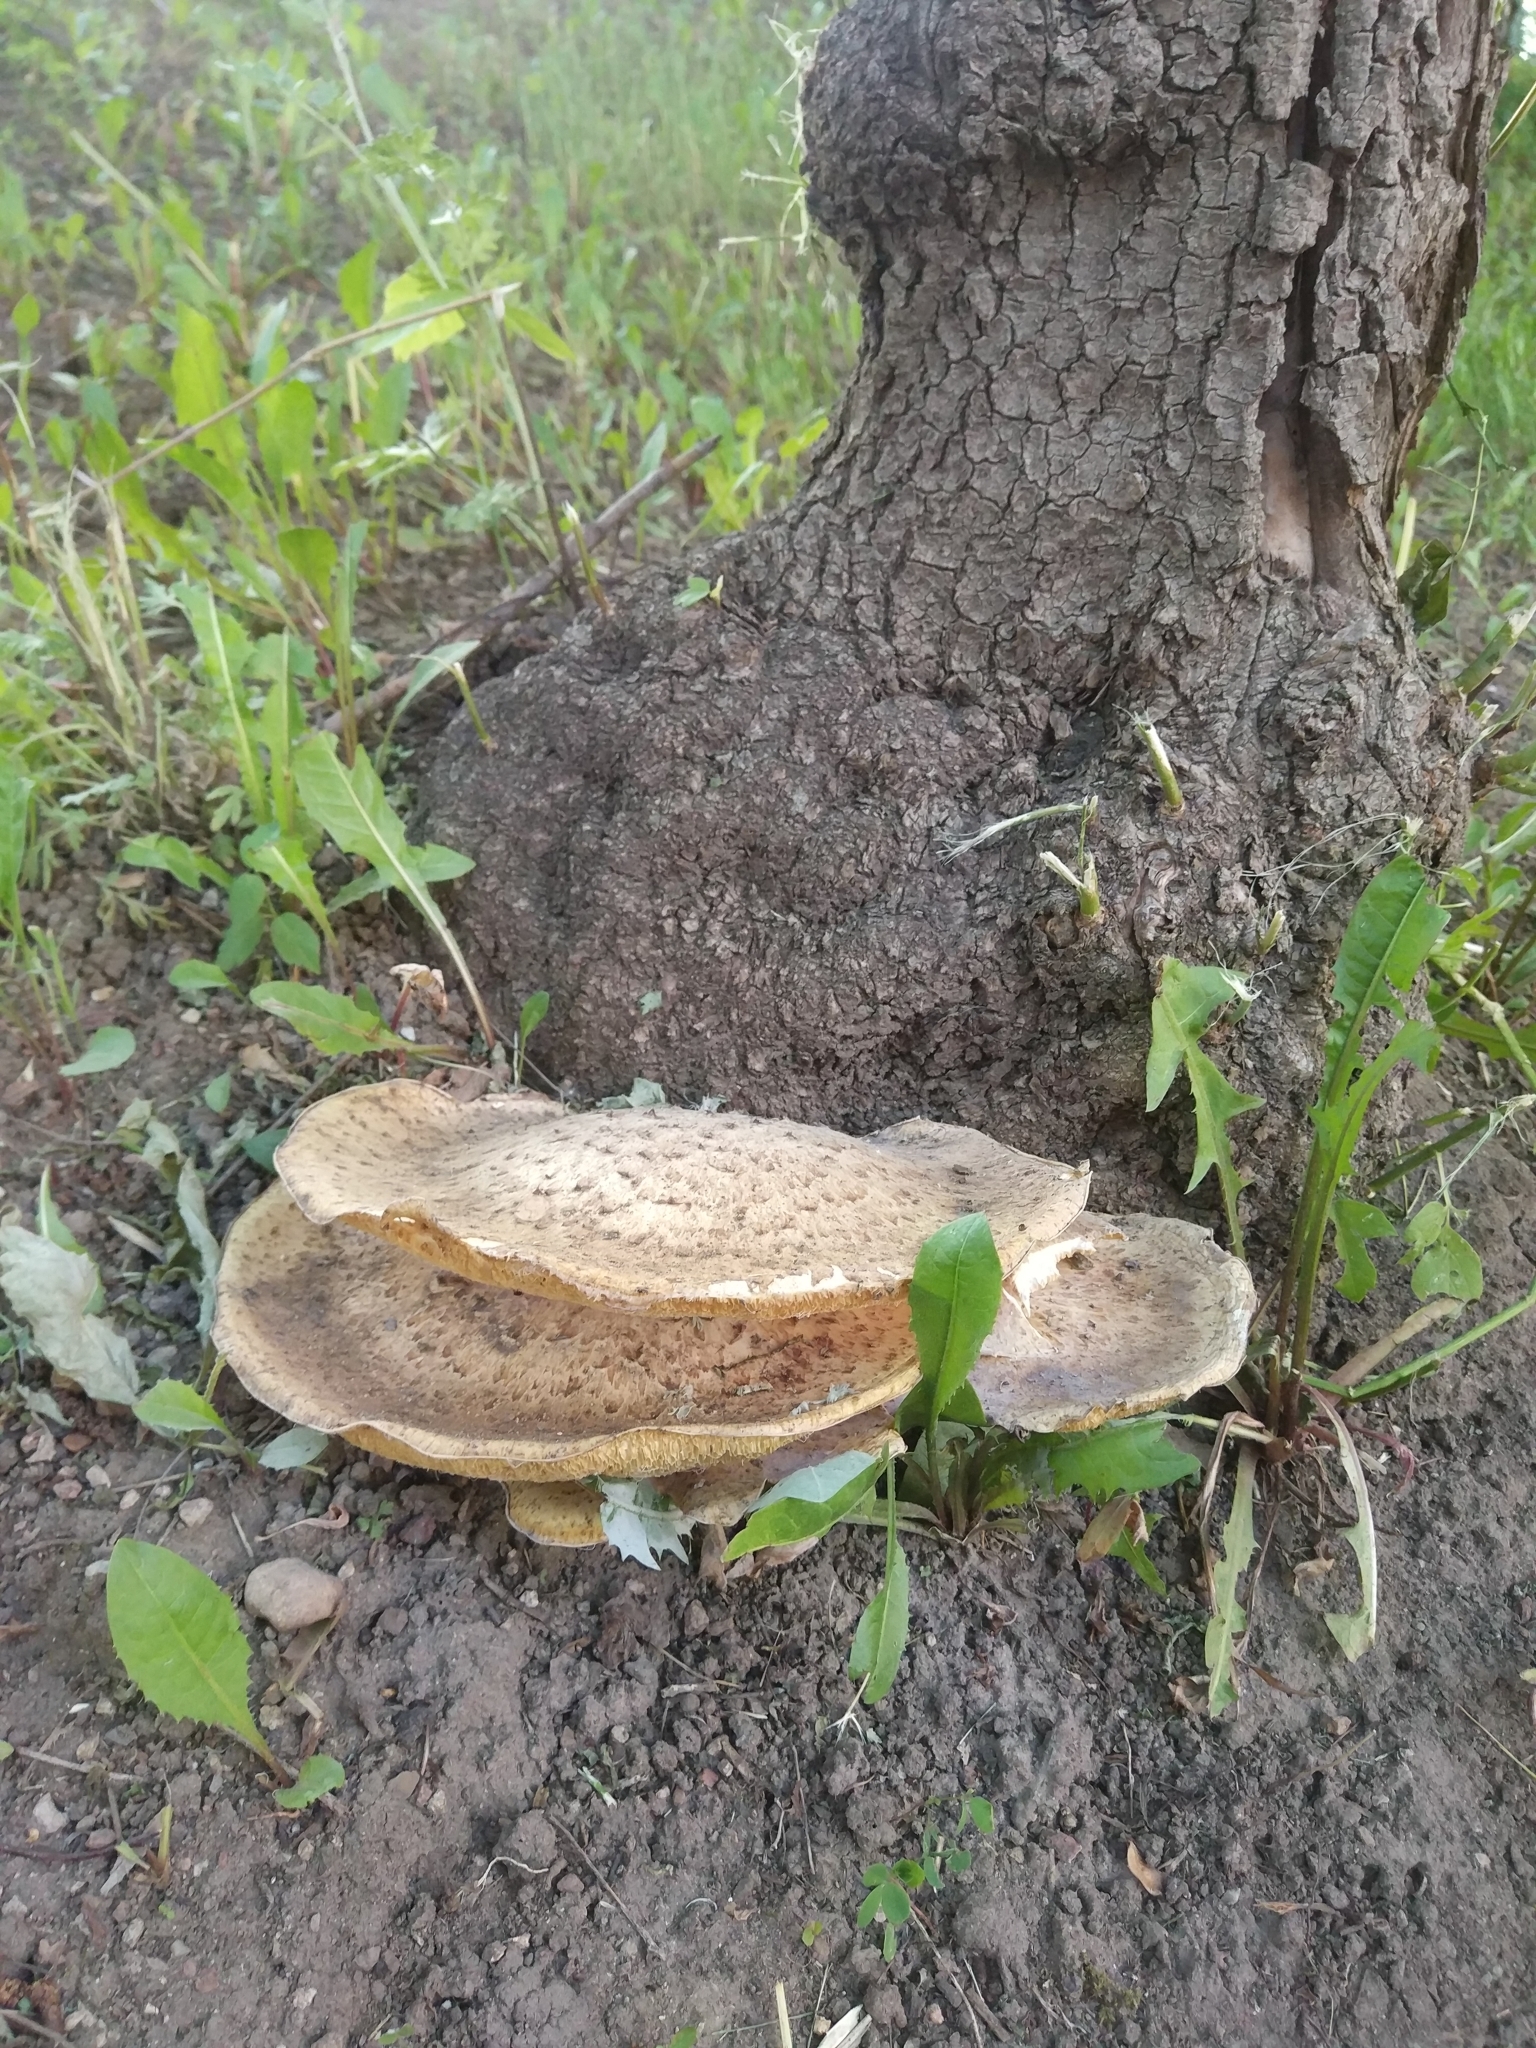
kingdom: Fungi
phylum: Basidiomycota
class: Agaricomycetes
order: Polyporales
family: Polyporaceae
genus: Cerioporus
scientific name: Cerioporus squamosus
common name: Dryad's saddle
